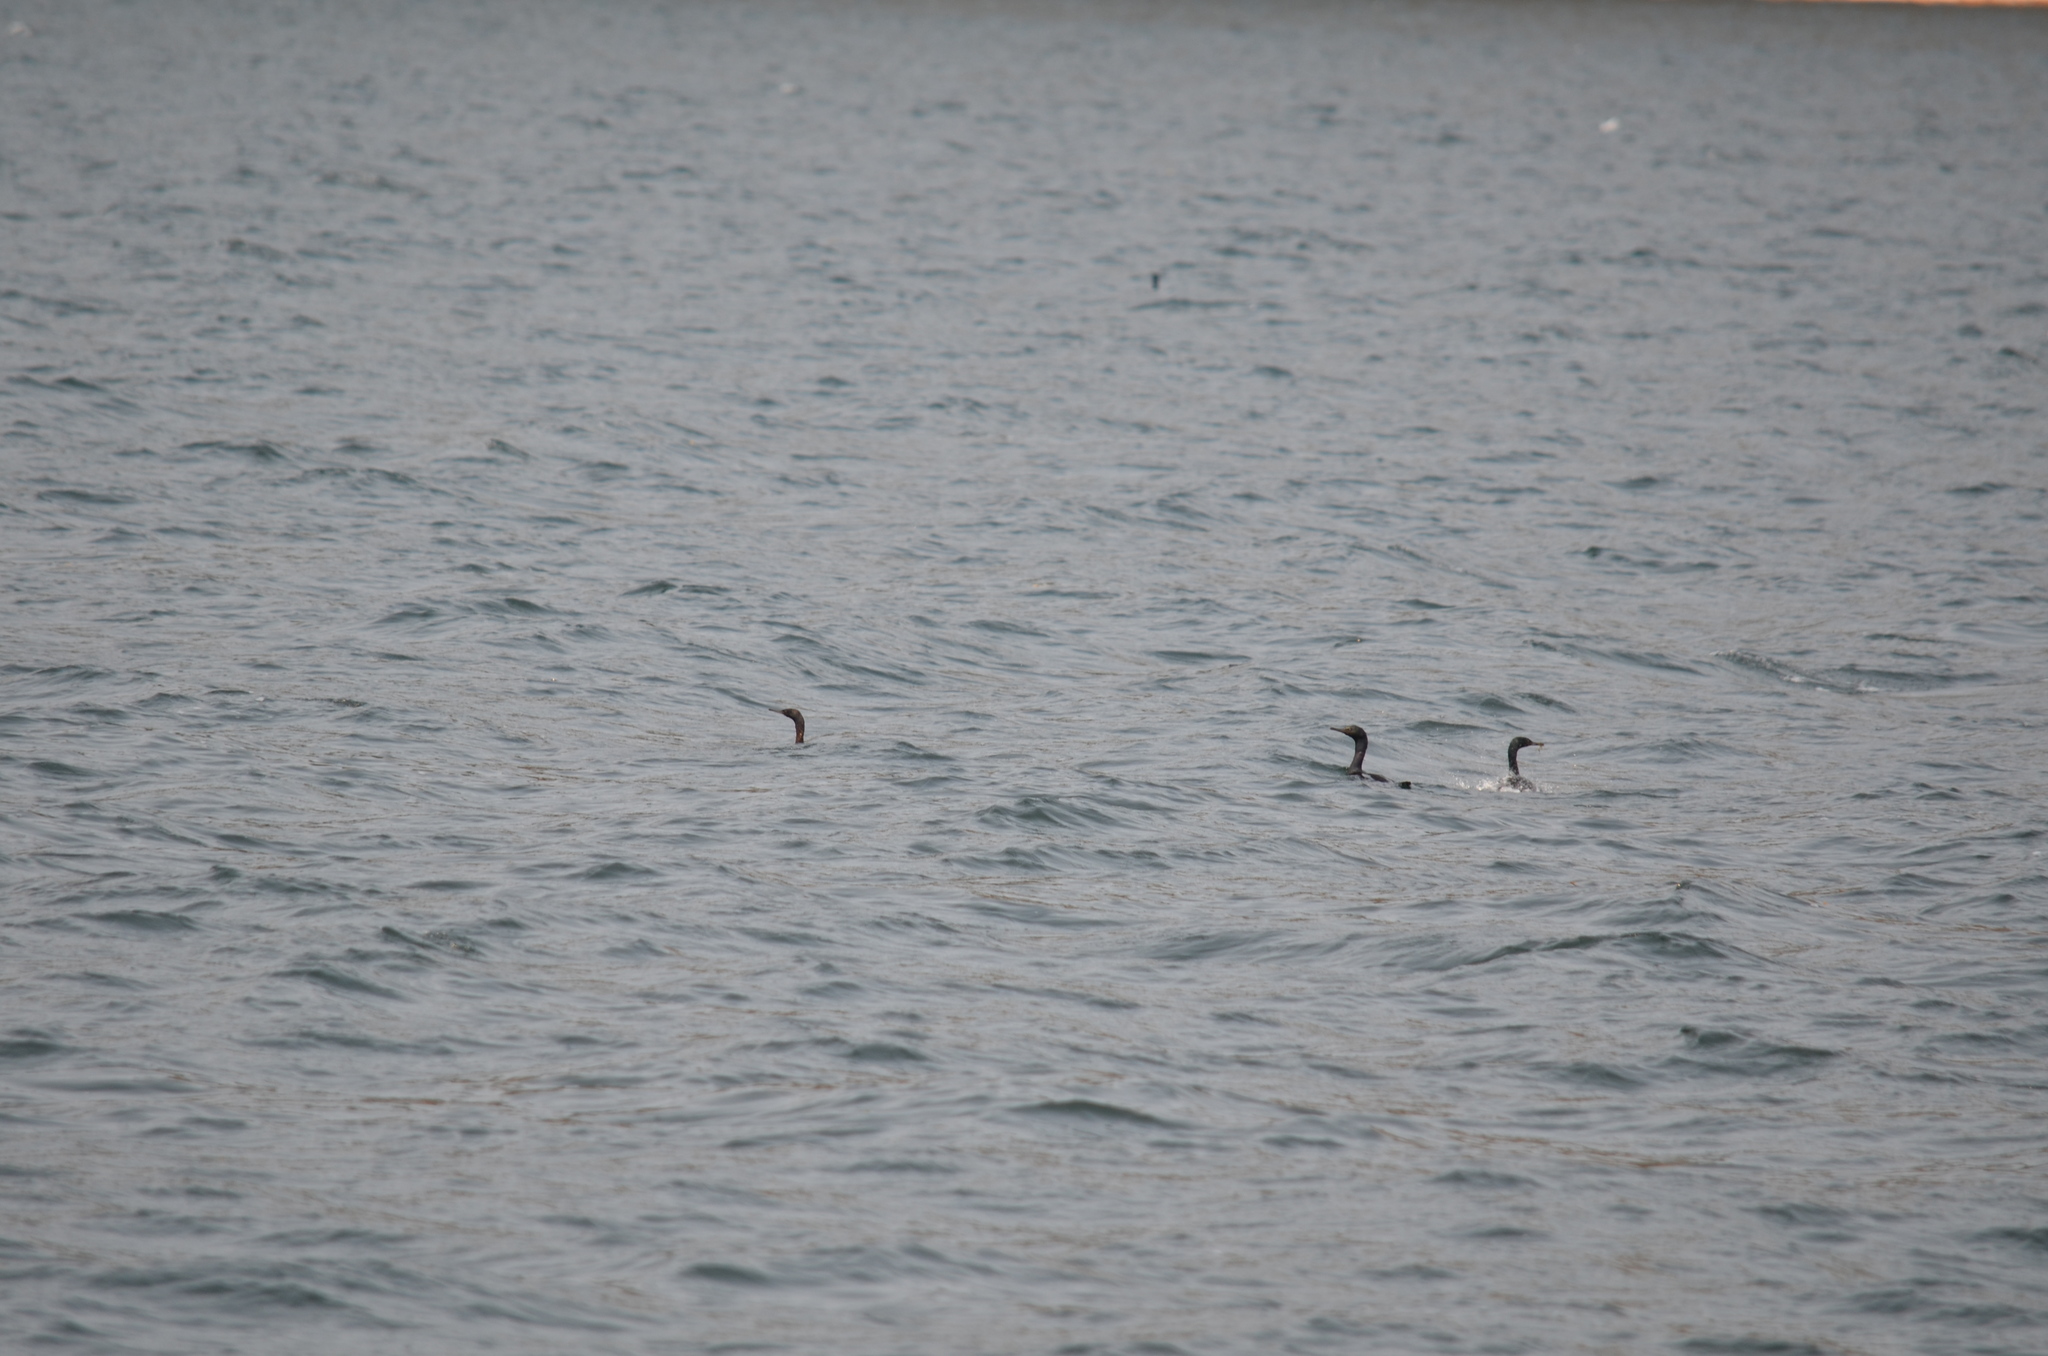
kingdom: Animalia
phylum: Chordata
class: Aves
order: Suliformes
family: Phalacrocoracidae
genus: Phalacrocorax
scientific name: Phalacrocorax pelagicus
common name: Pelagic cormorant
